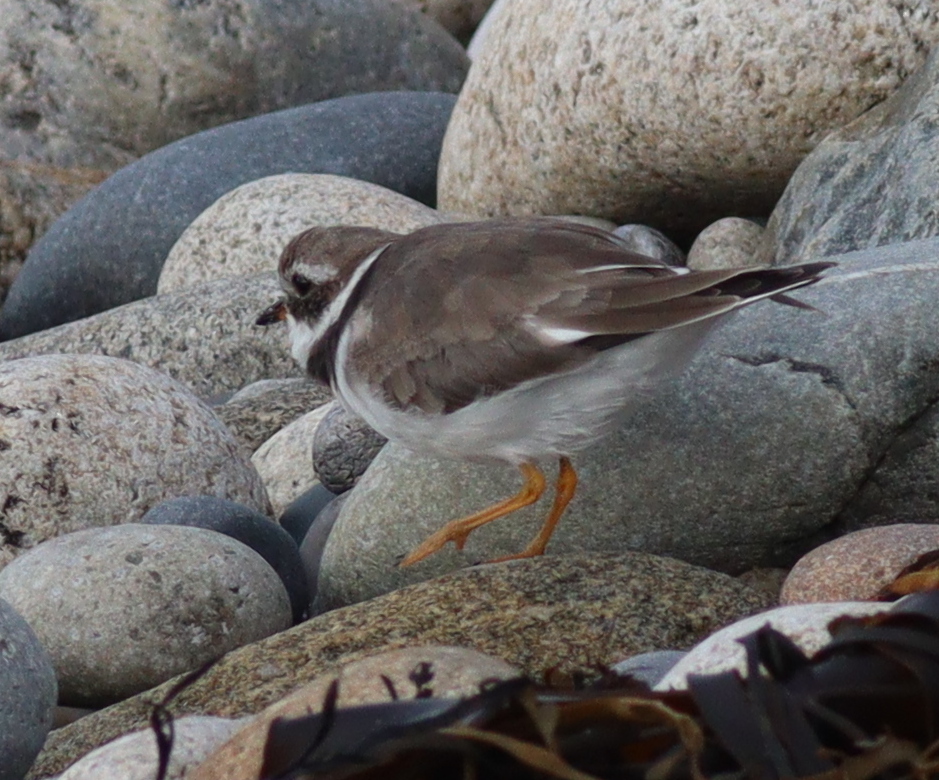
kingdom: Animalia
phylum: Chordata
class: Aves
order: Charadriiformes
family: Charadriidae
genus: Charadrius
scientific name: Charadrius hiaticula
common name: Common ringed plover
